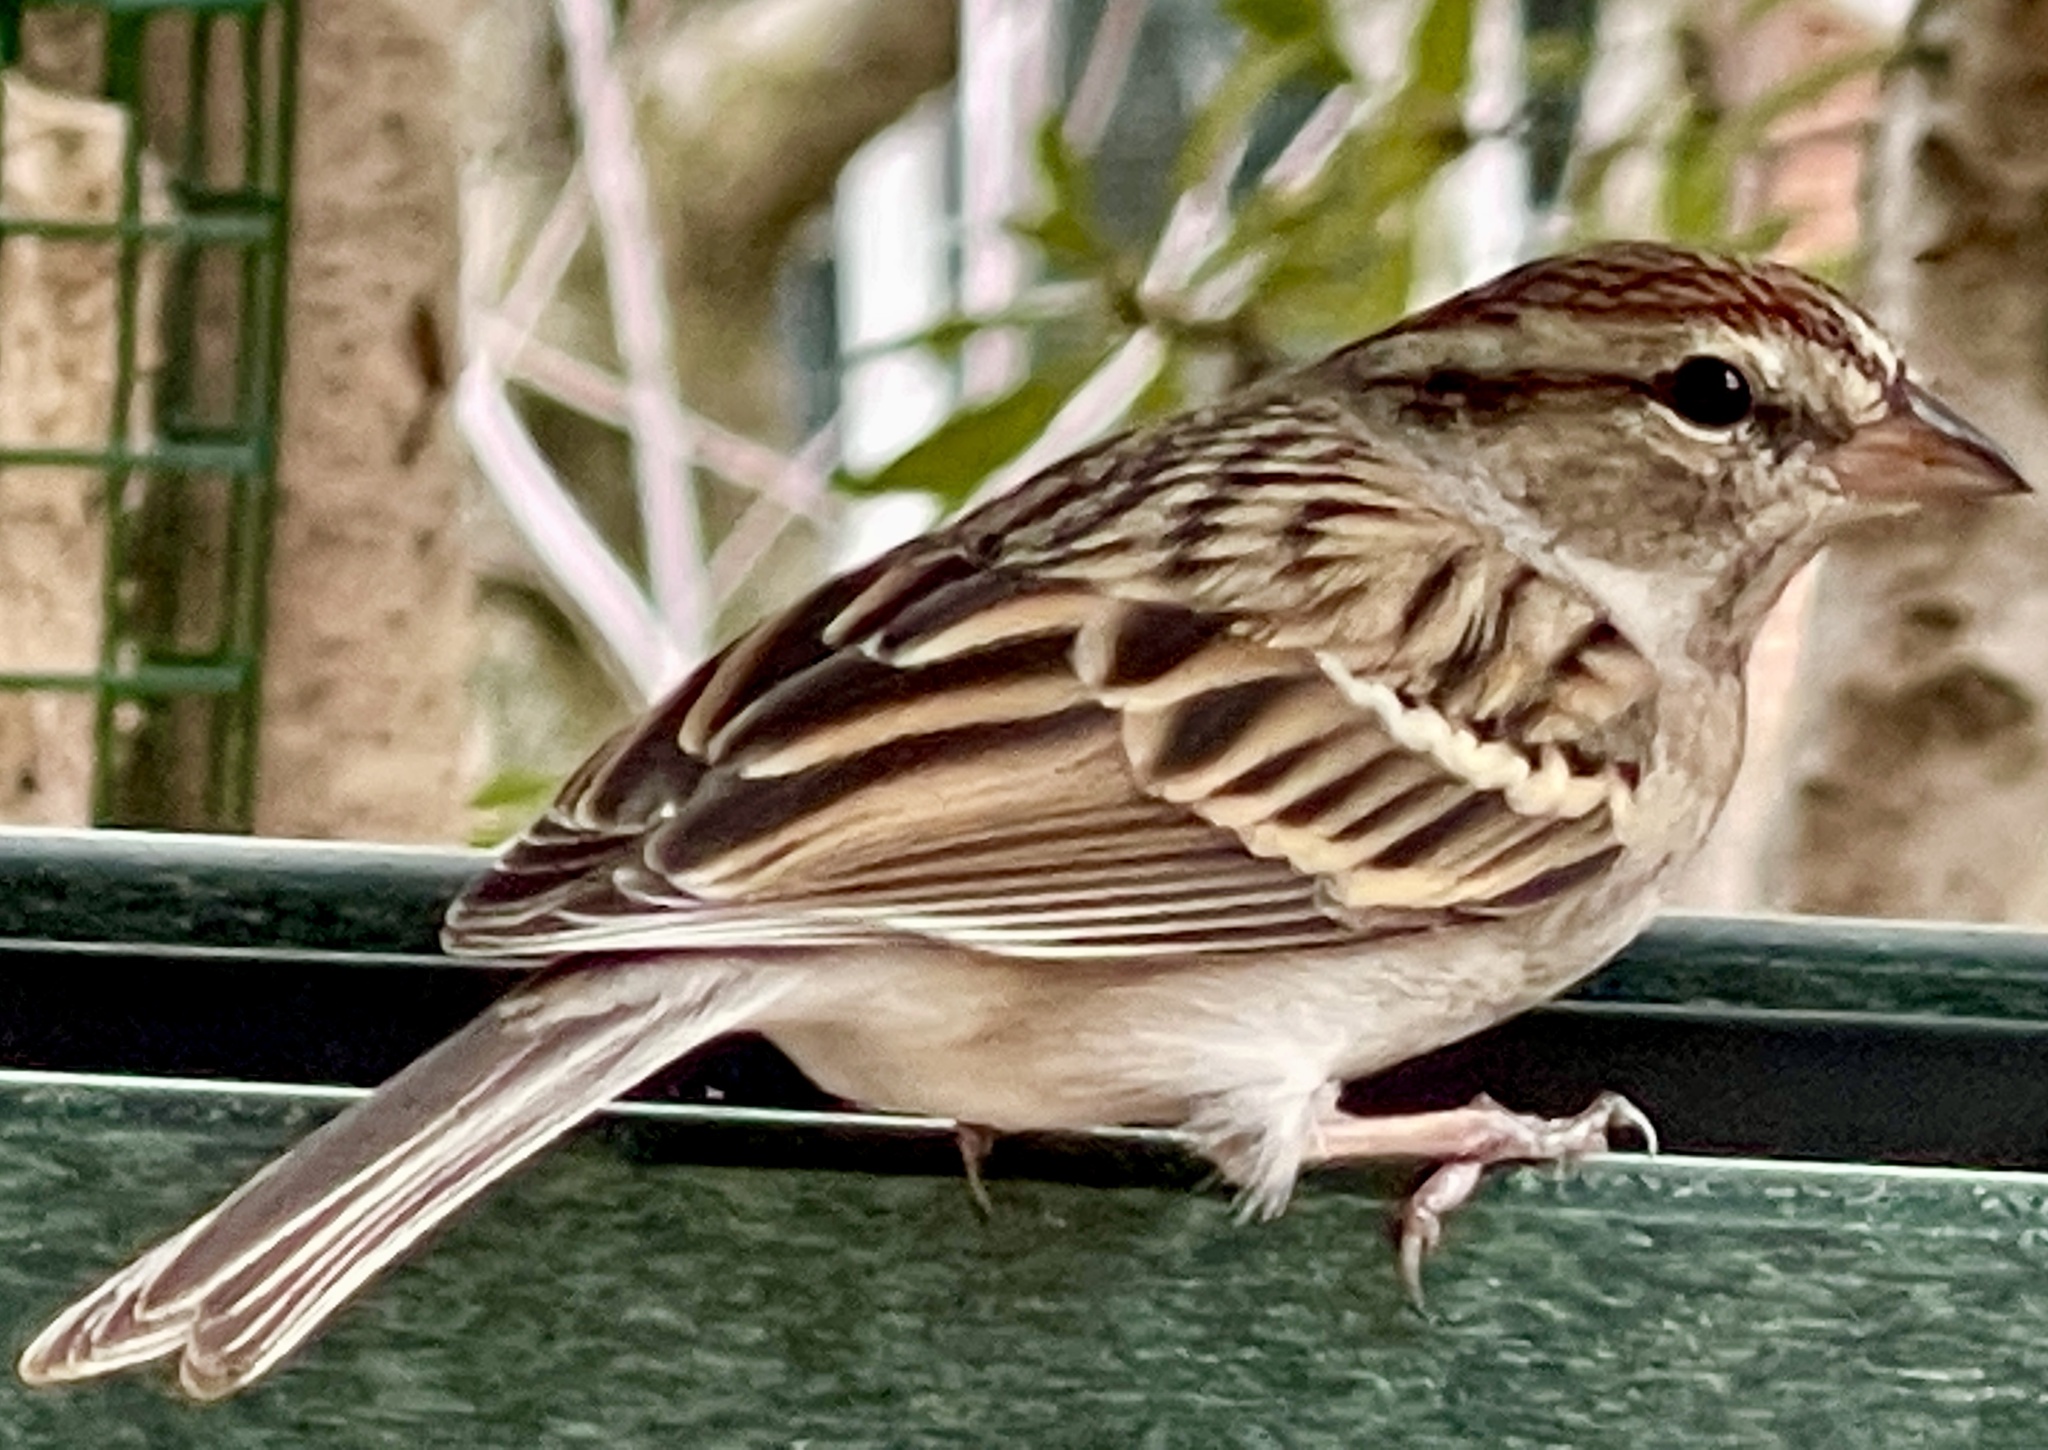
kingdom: Animalia
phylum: Chordata
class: Aves
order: Passeriformes
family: Passerellidae
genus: Spizella
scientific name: Spizella passerina
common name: Chipping sparrow
